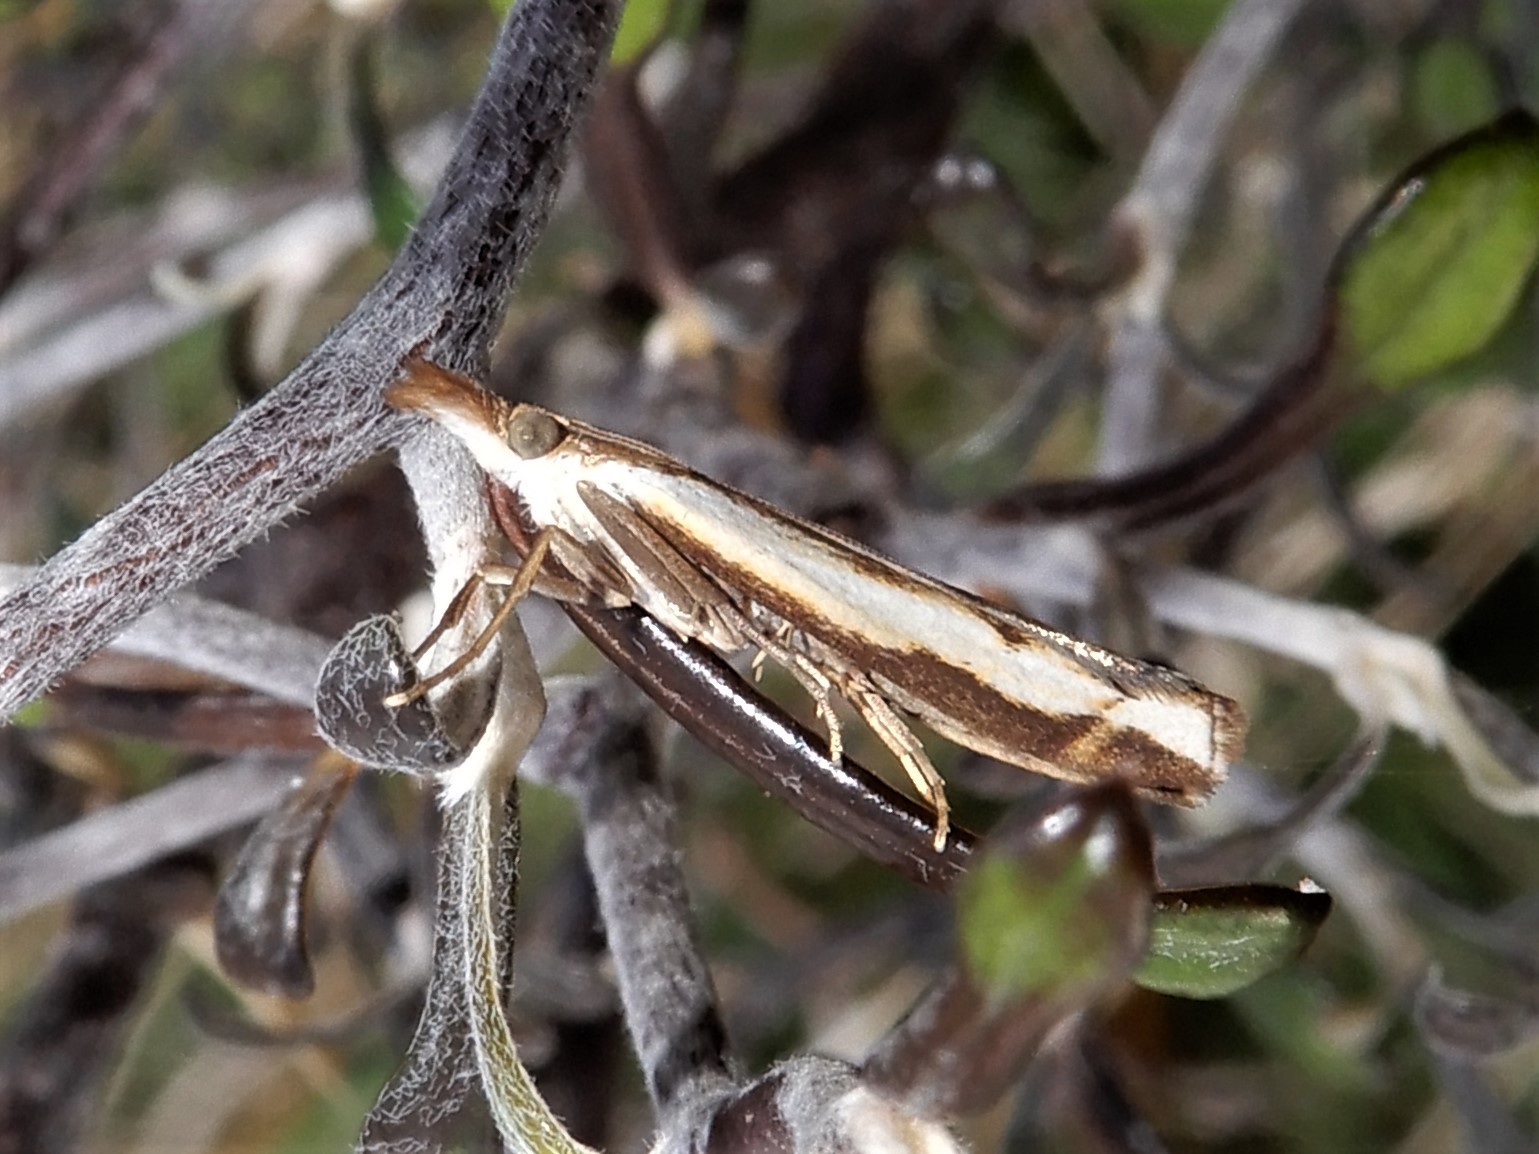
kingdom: Animalia
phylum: Arthropoda
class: Insecta
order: Lepidoptera
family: Crambidae
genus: Orocrambus
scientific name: Orocrambus flexuosellus
